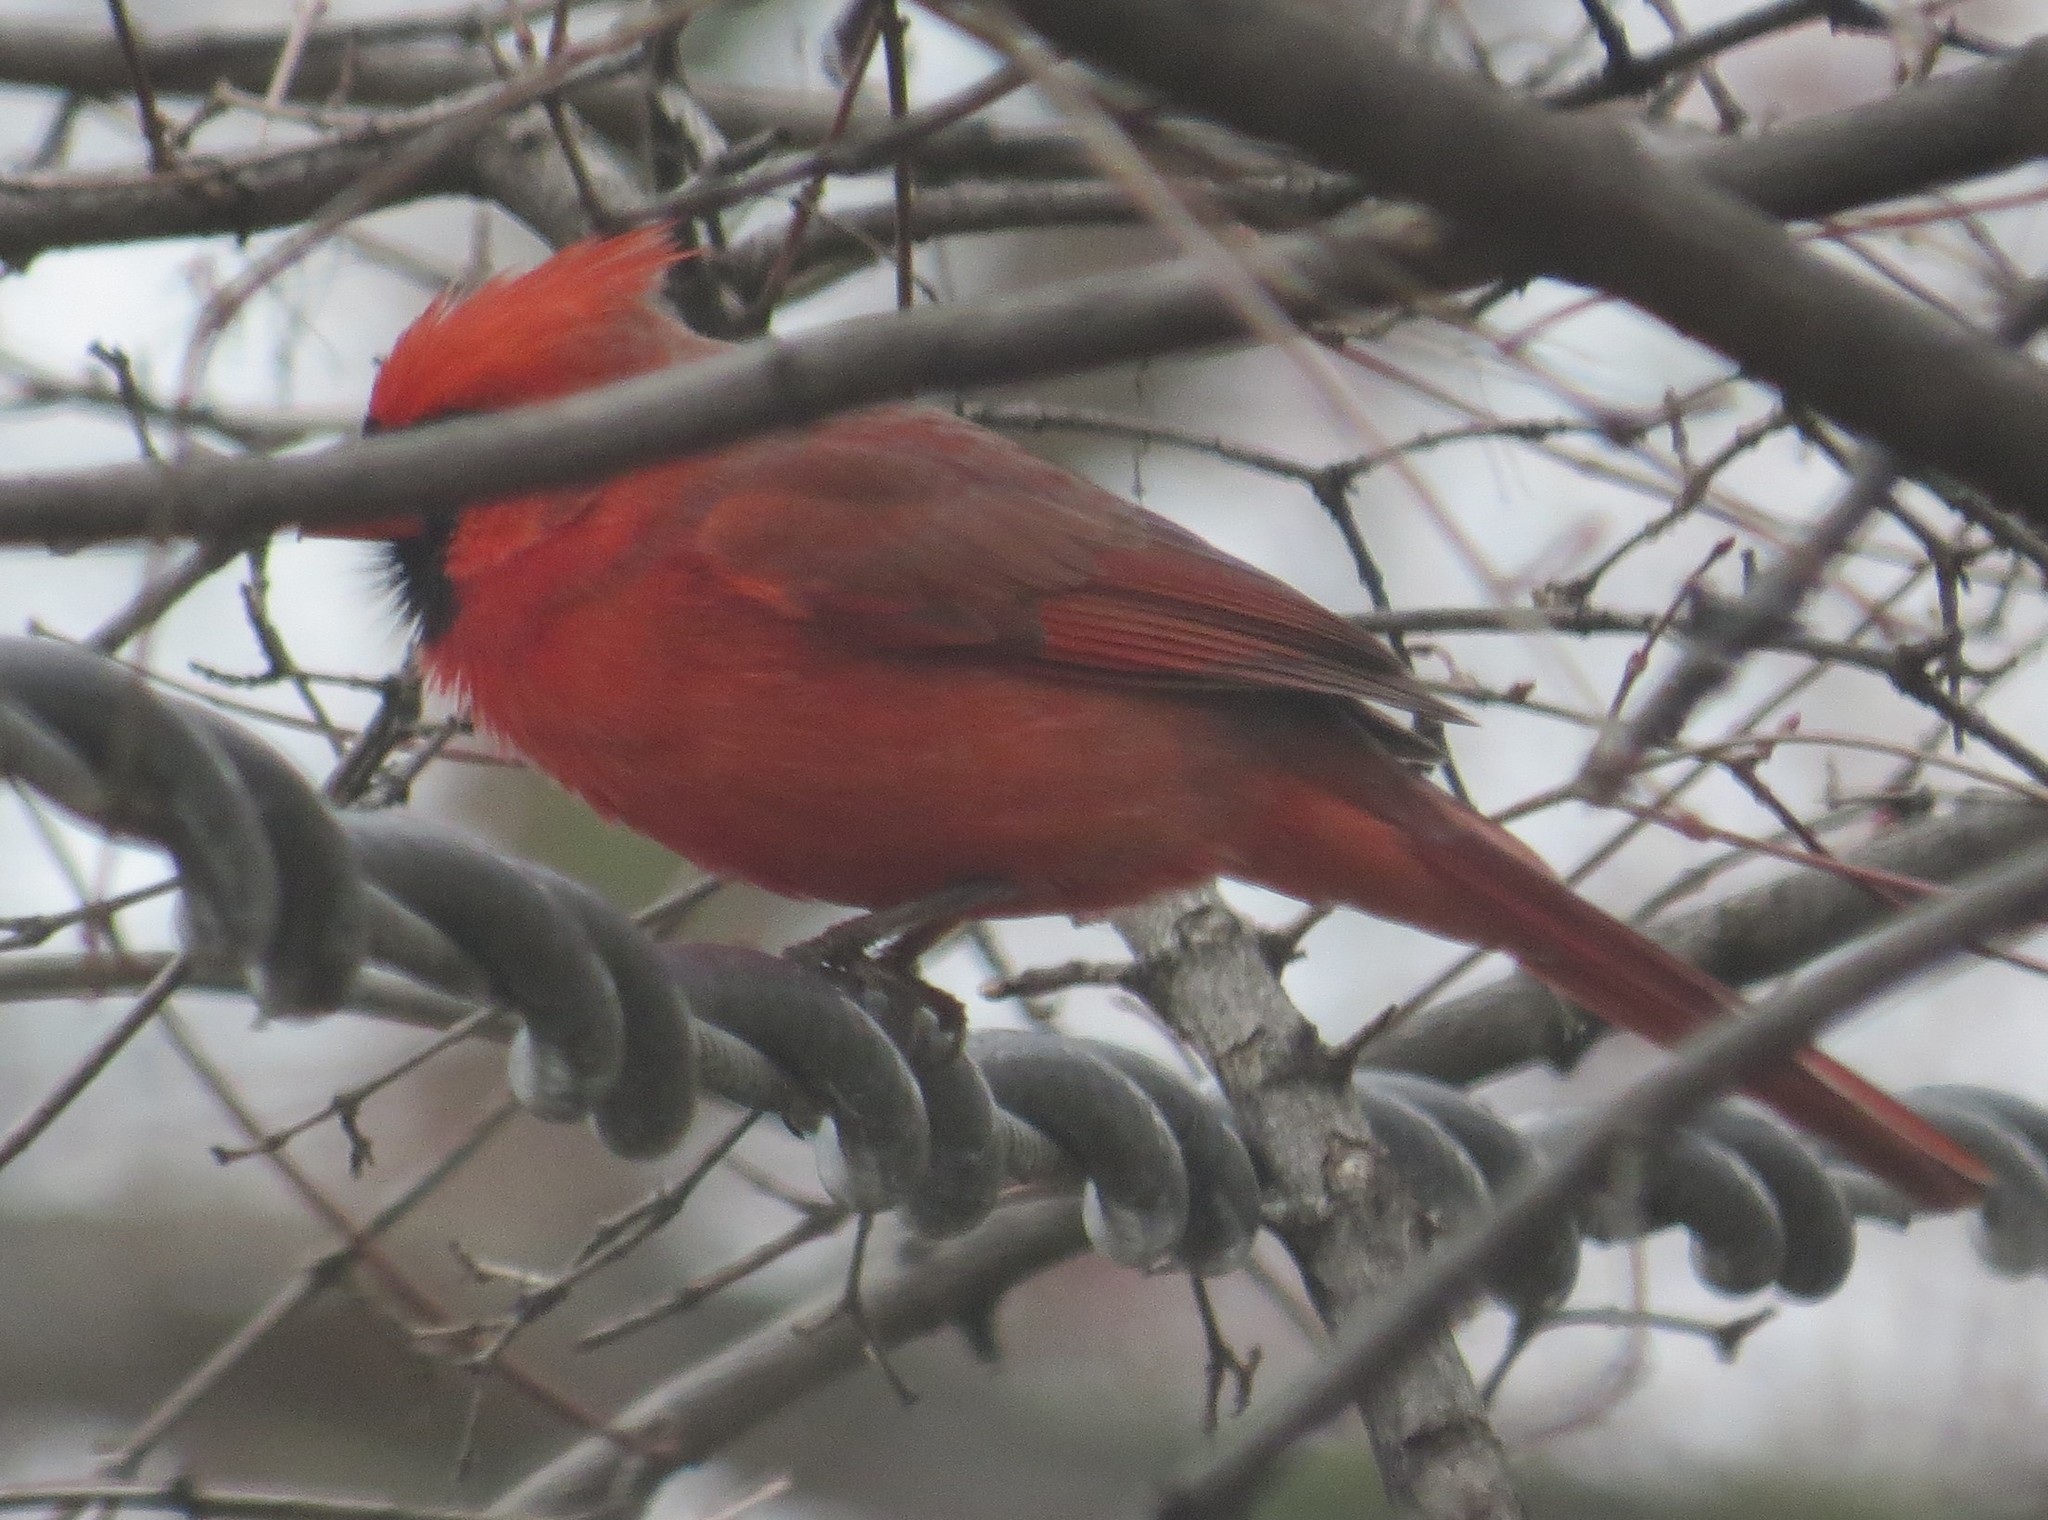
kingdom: Animalia
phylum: Chordata
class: Aves
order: Passeriformes
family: Cardinalidae
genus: Cardinalis
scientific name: Cardinalis cardinalis
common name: Northern cardinal
